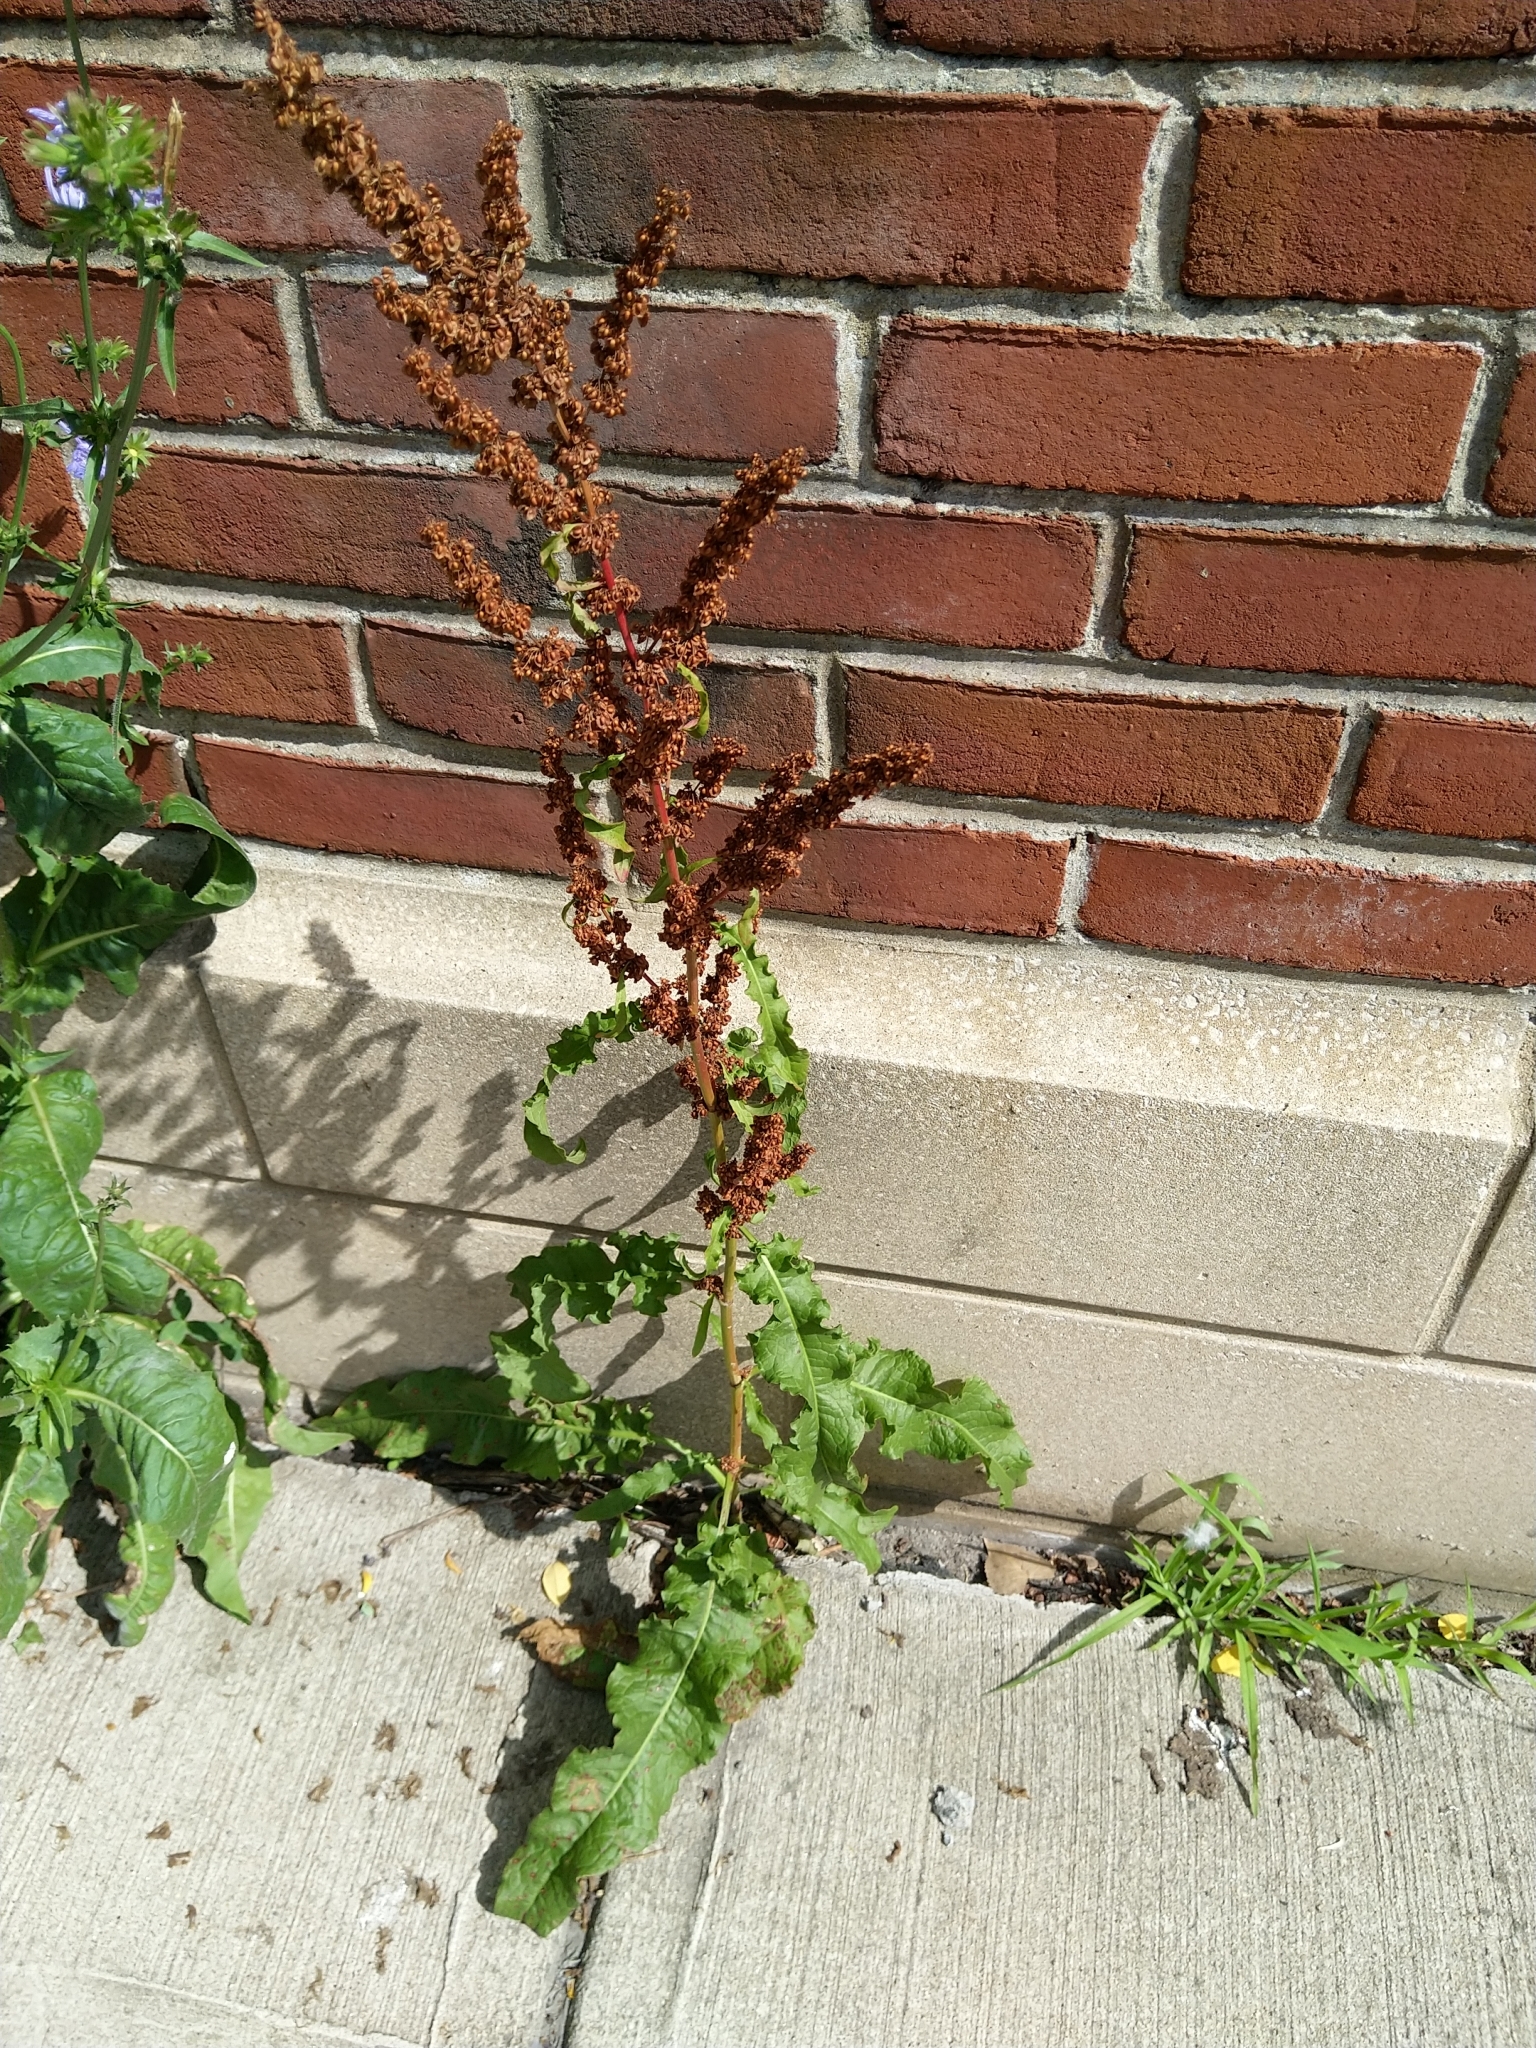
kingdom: Plantae
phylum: Tracheophyta
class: Magnoliopsida
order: Caryophyllales
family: Polygonaceae
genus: Rumex
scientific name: Rumex crispus
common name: Curled dock
